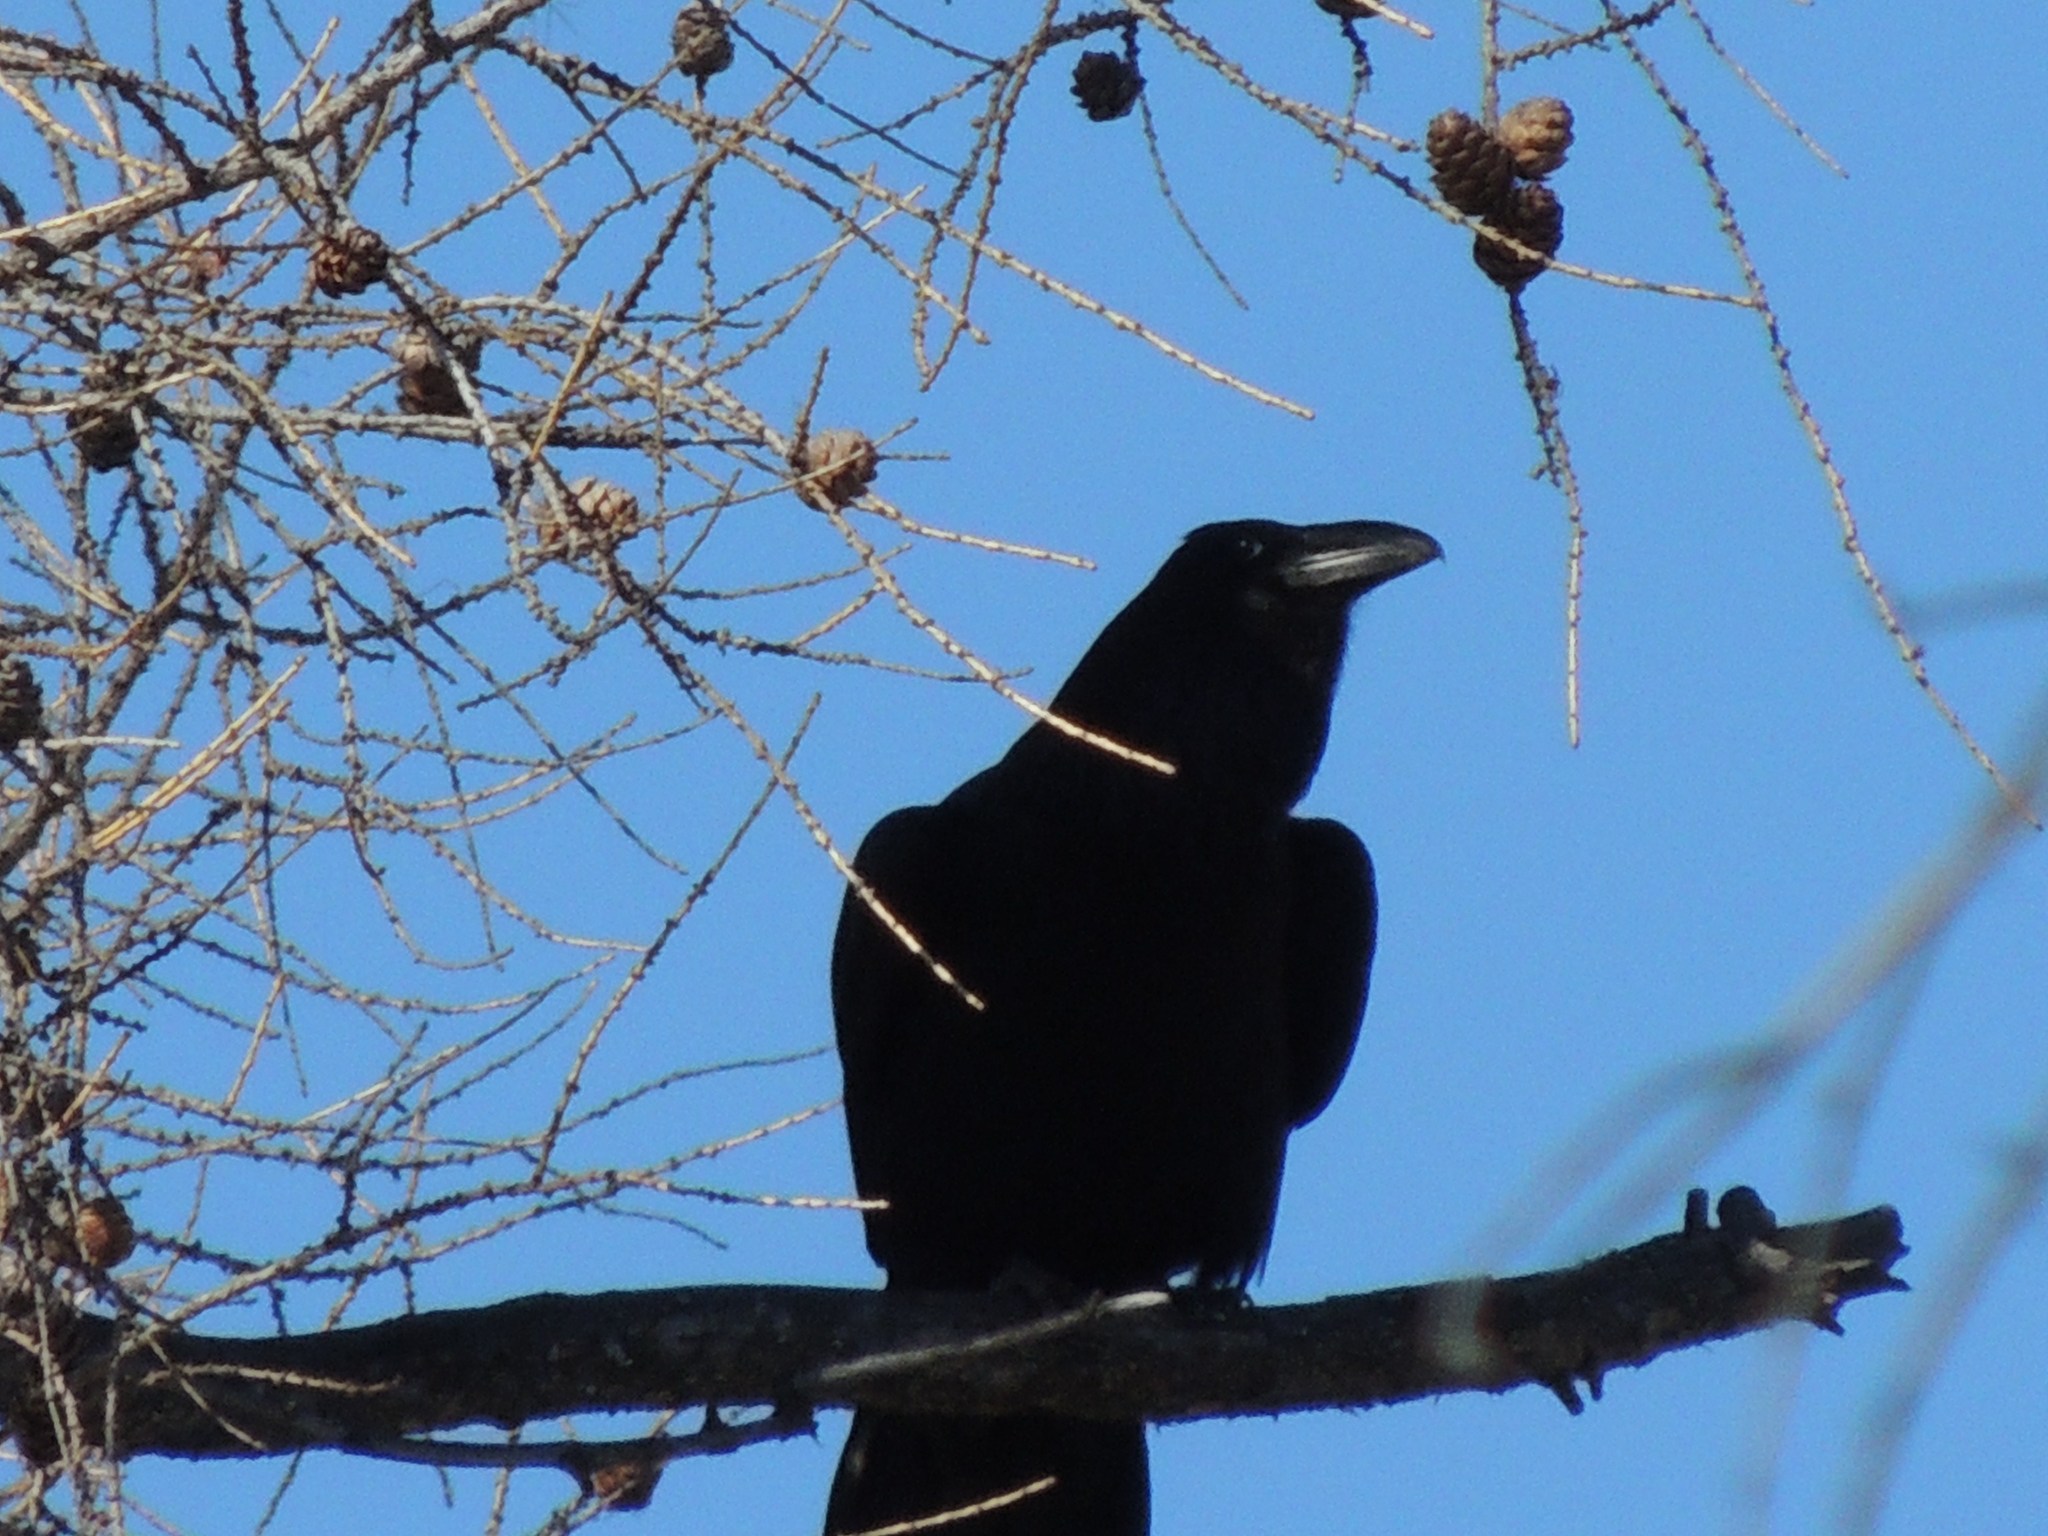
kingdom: Animalia
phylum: Chordata
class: Aves
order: Passeriformes
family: Corvidae
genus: Corvus
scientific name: Corvus corax
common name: Common raven
